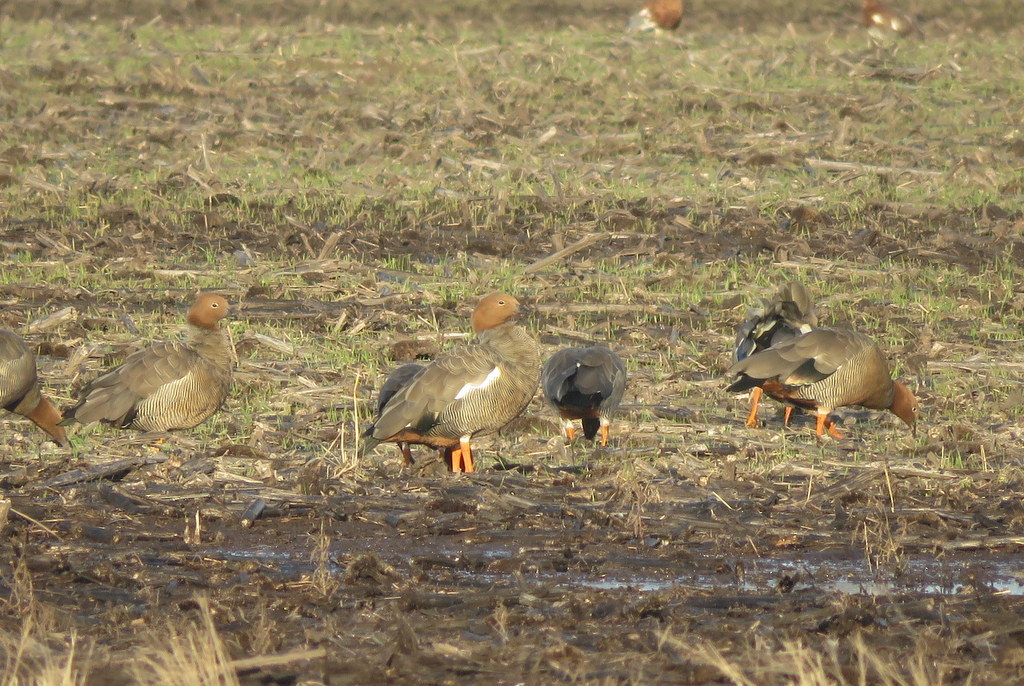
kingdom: Animalia
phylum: Chordata
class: Aves
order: Anseriformes
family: Anatidae
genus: Chloephaga
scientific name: Chloephaga rubidiceps
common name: Ruddy-headed goose
